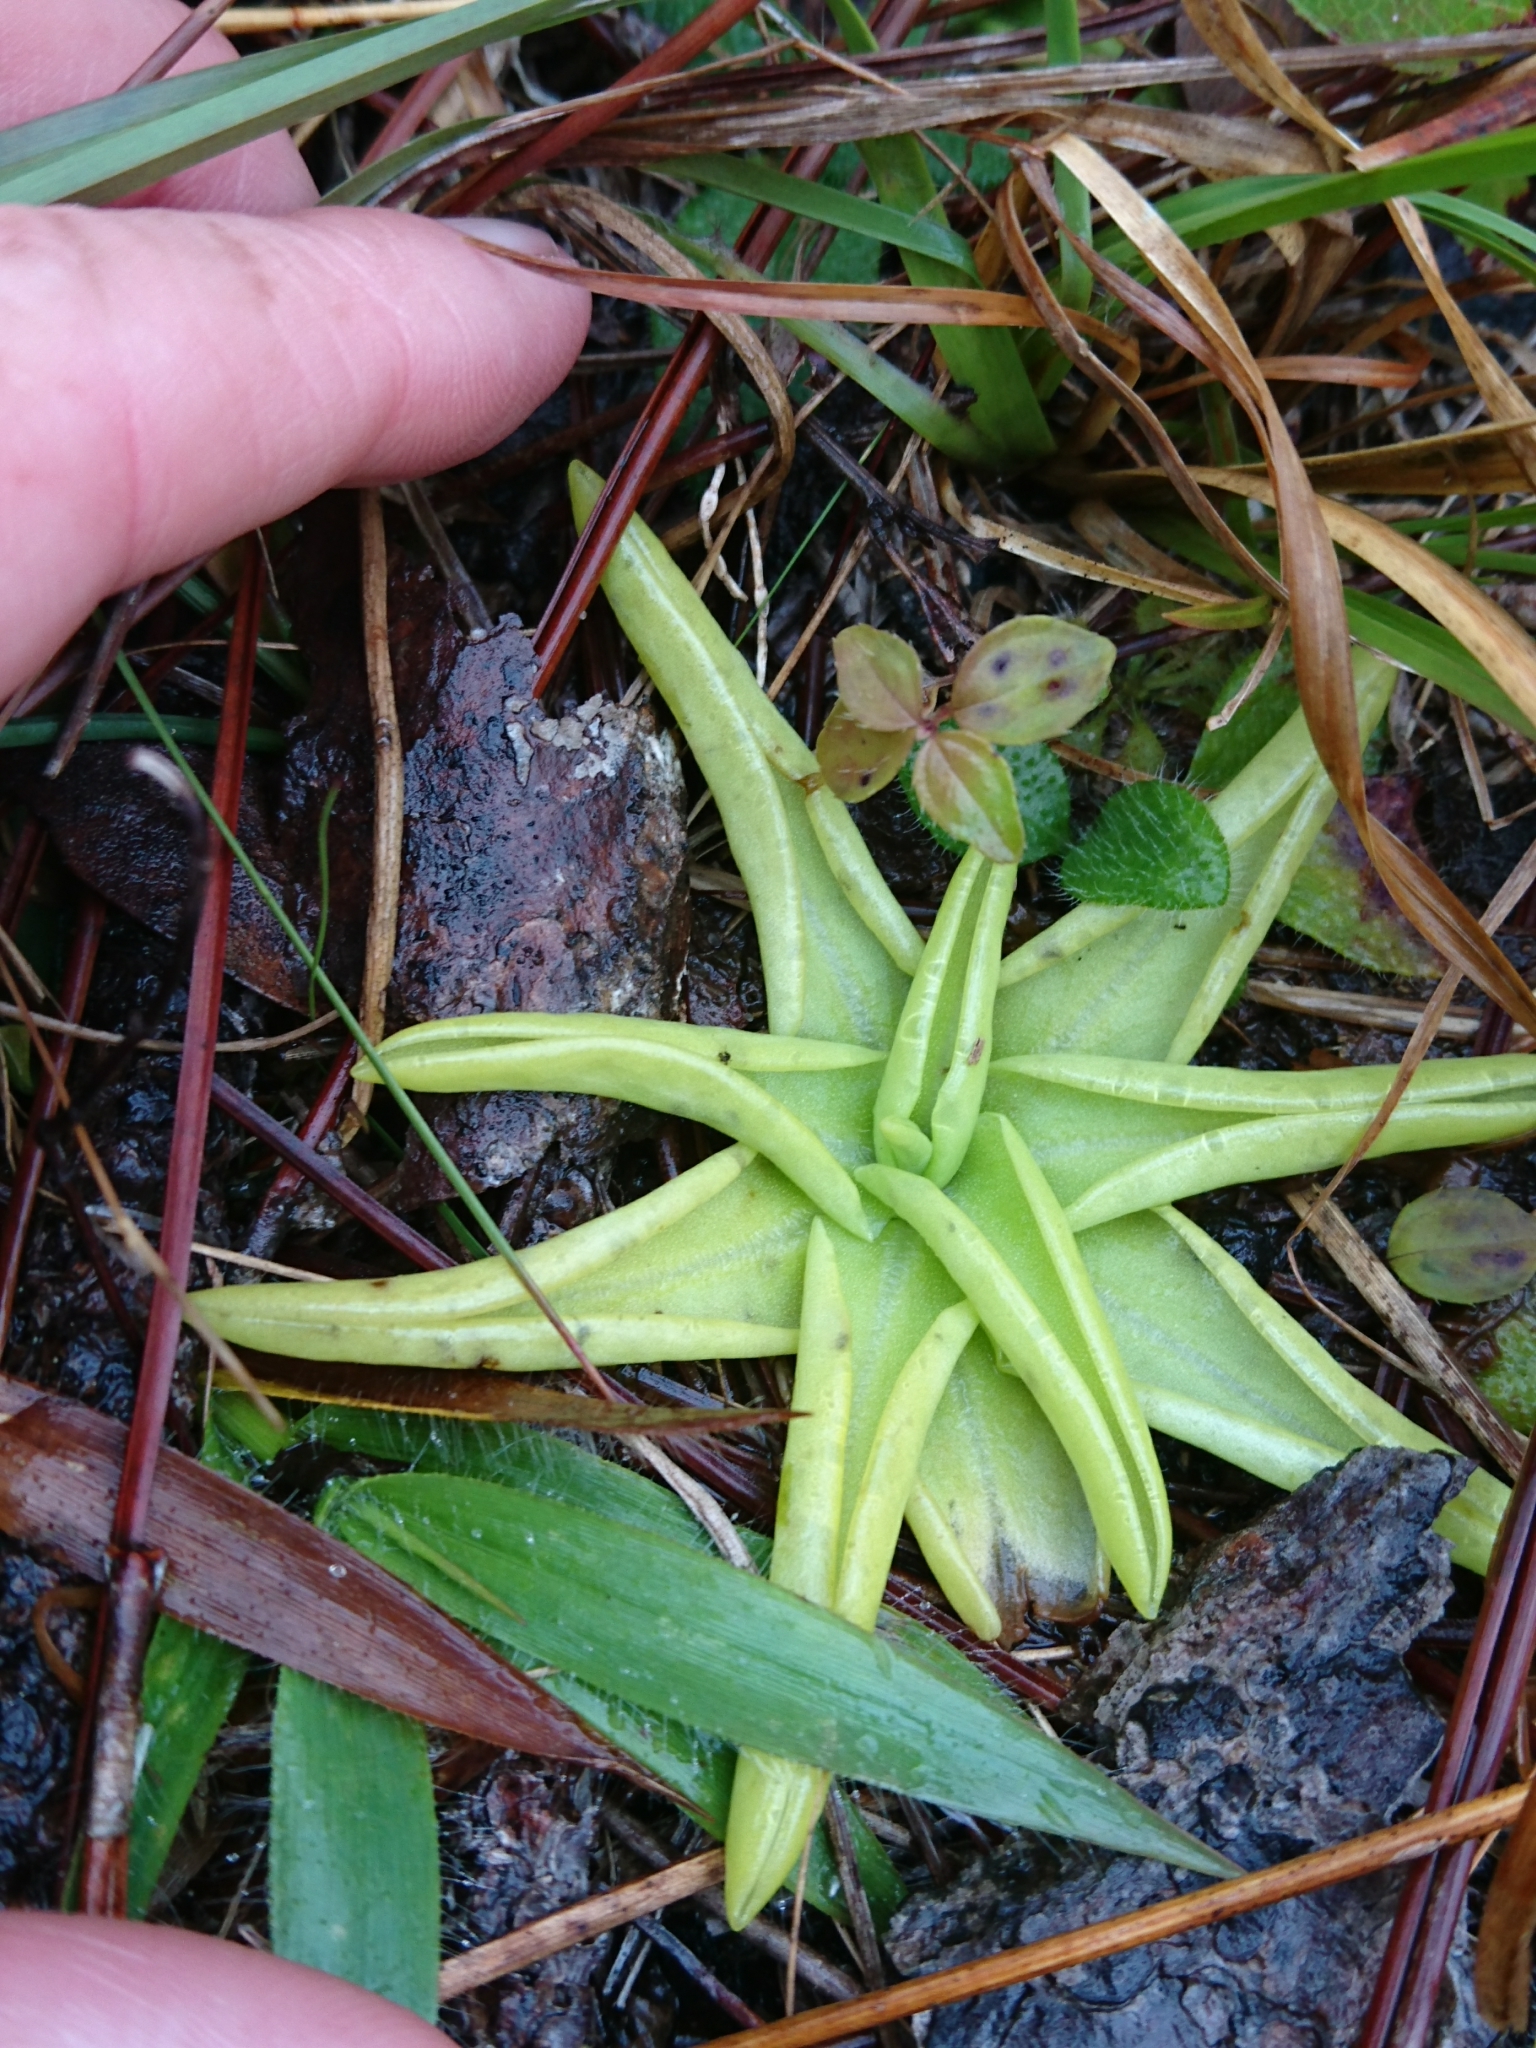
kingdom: Plantae
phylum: Tracheophyta
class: Magnoliopsida
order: Lamiales
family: Lentibulariaceae
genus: Pinguicula
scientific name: Pinguicula lutea
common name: Yellow butterwort
